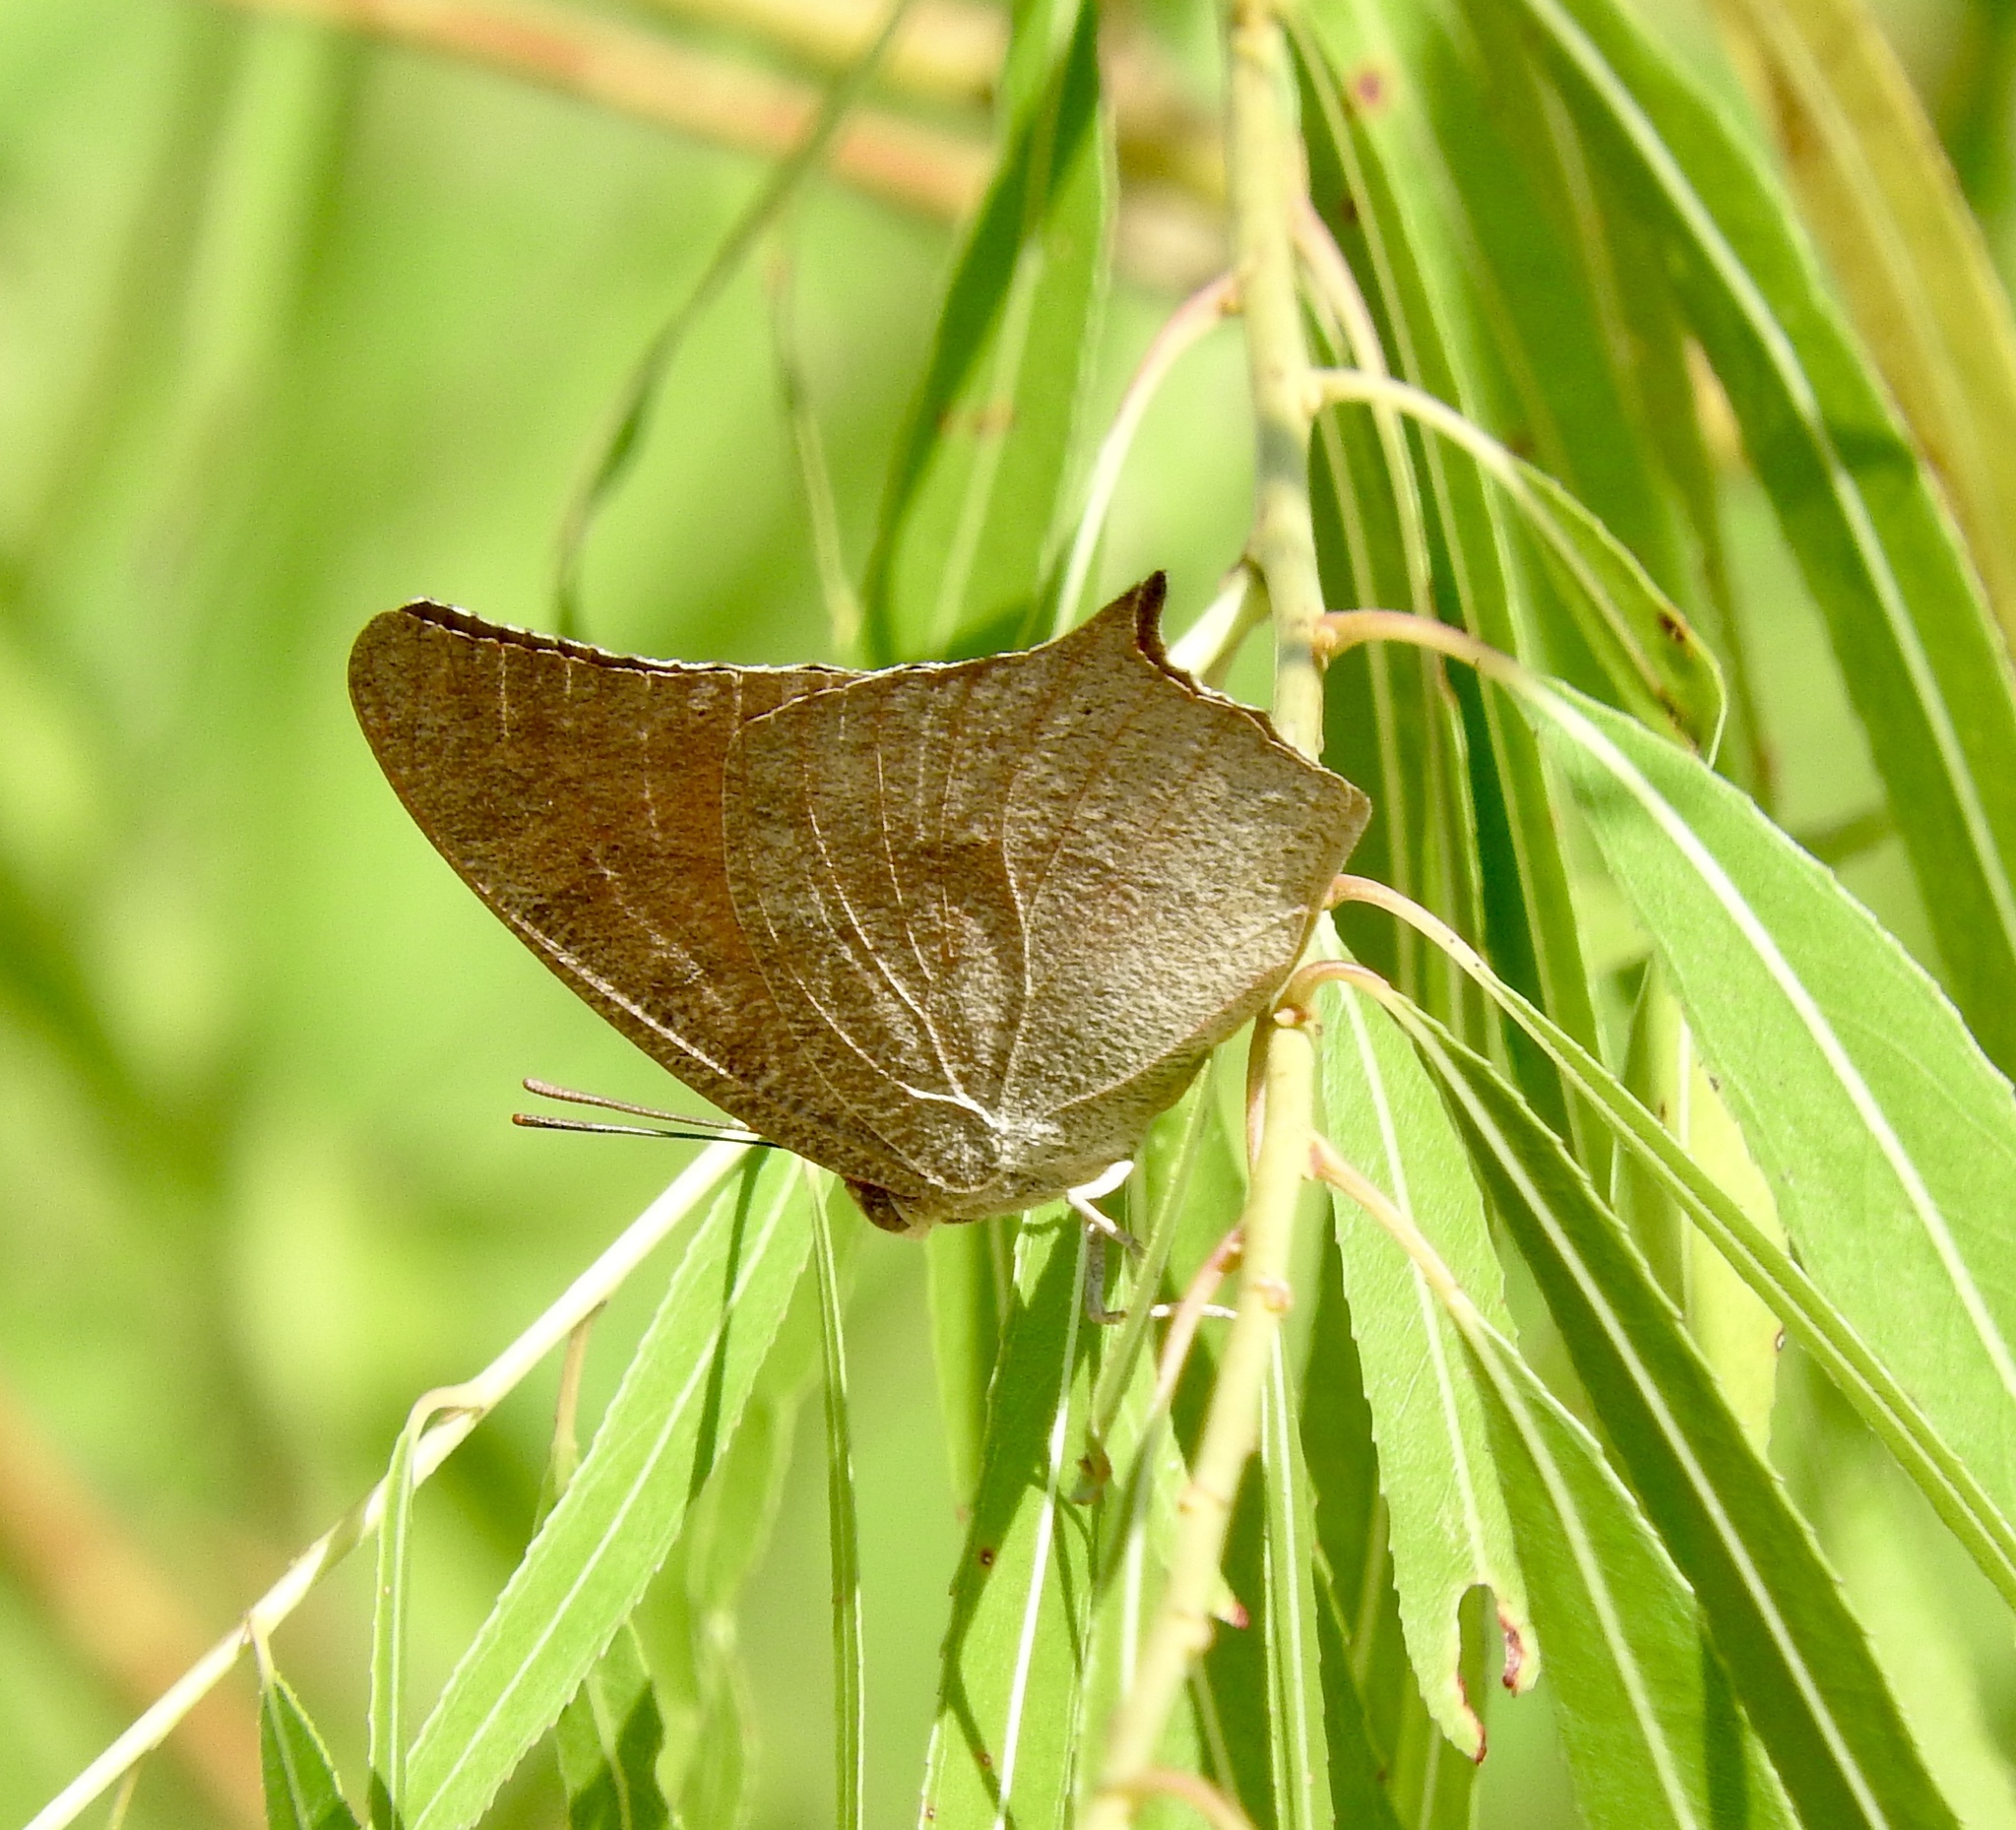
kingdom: Animalia
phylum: Arthropoda
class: Insecta
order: Lepidoptera
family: Nymphalidae
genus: Anaea
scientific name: Anaea andria
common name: Goatweed leafwing
